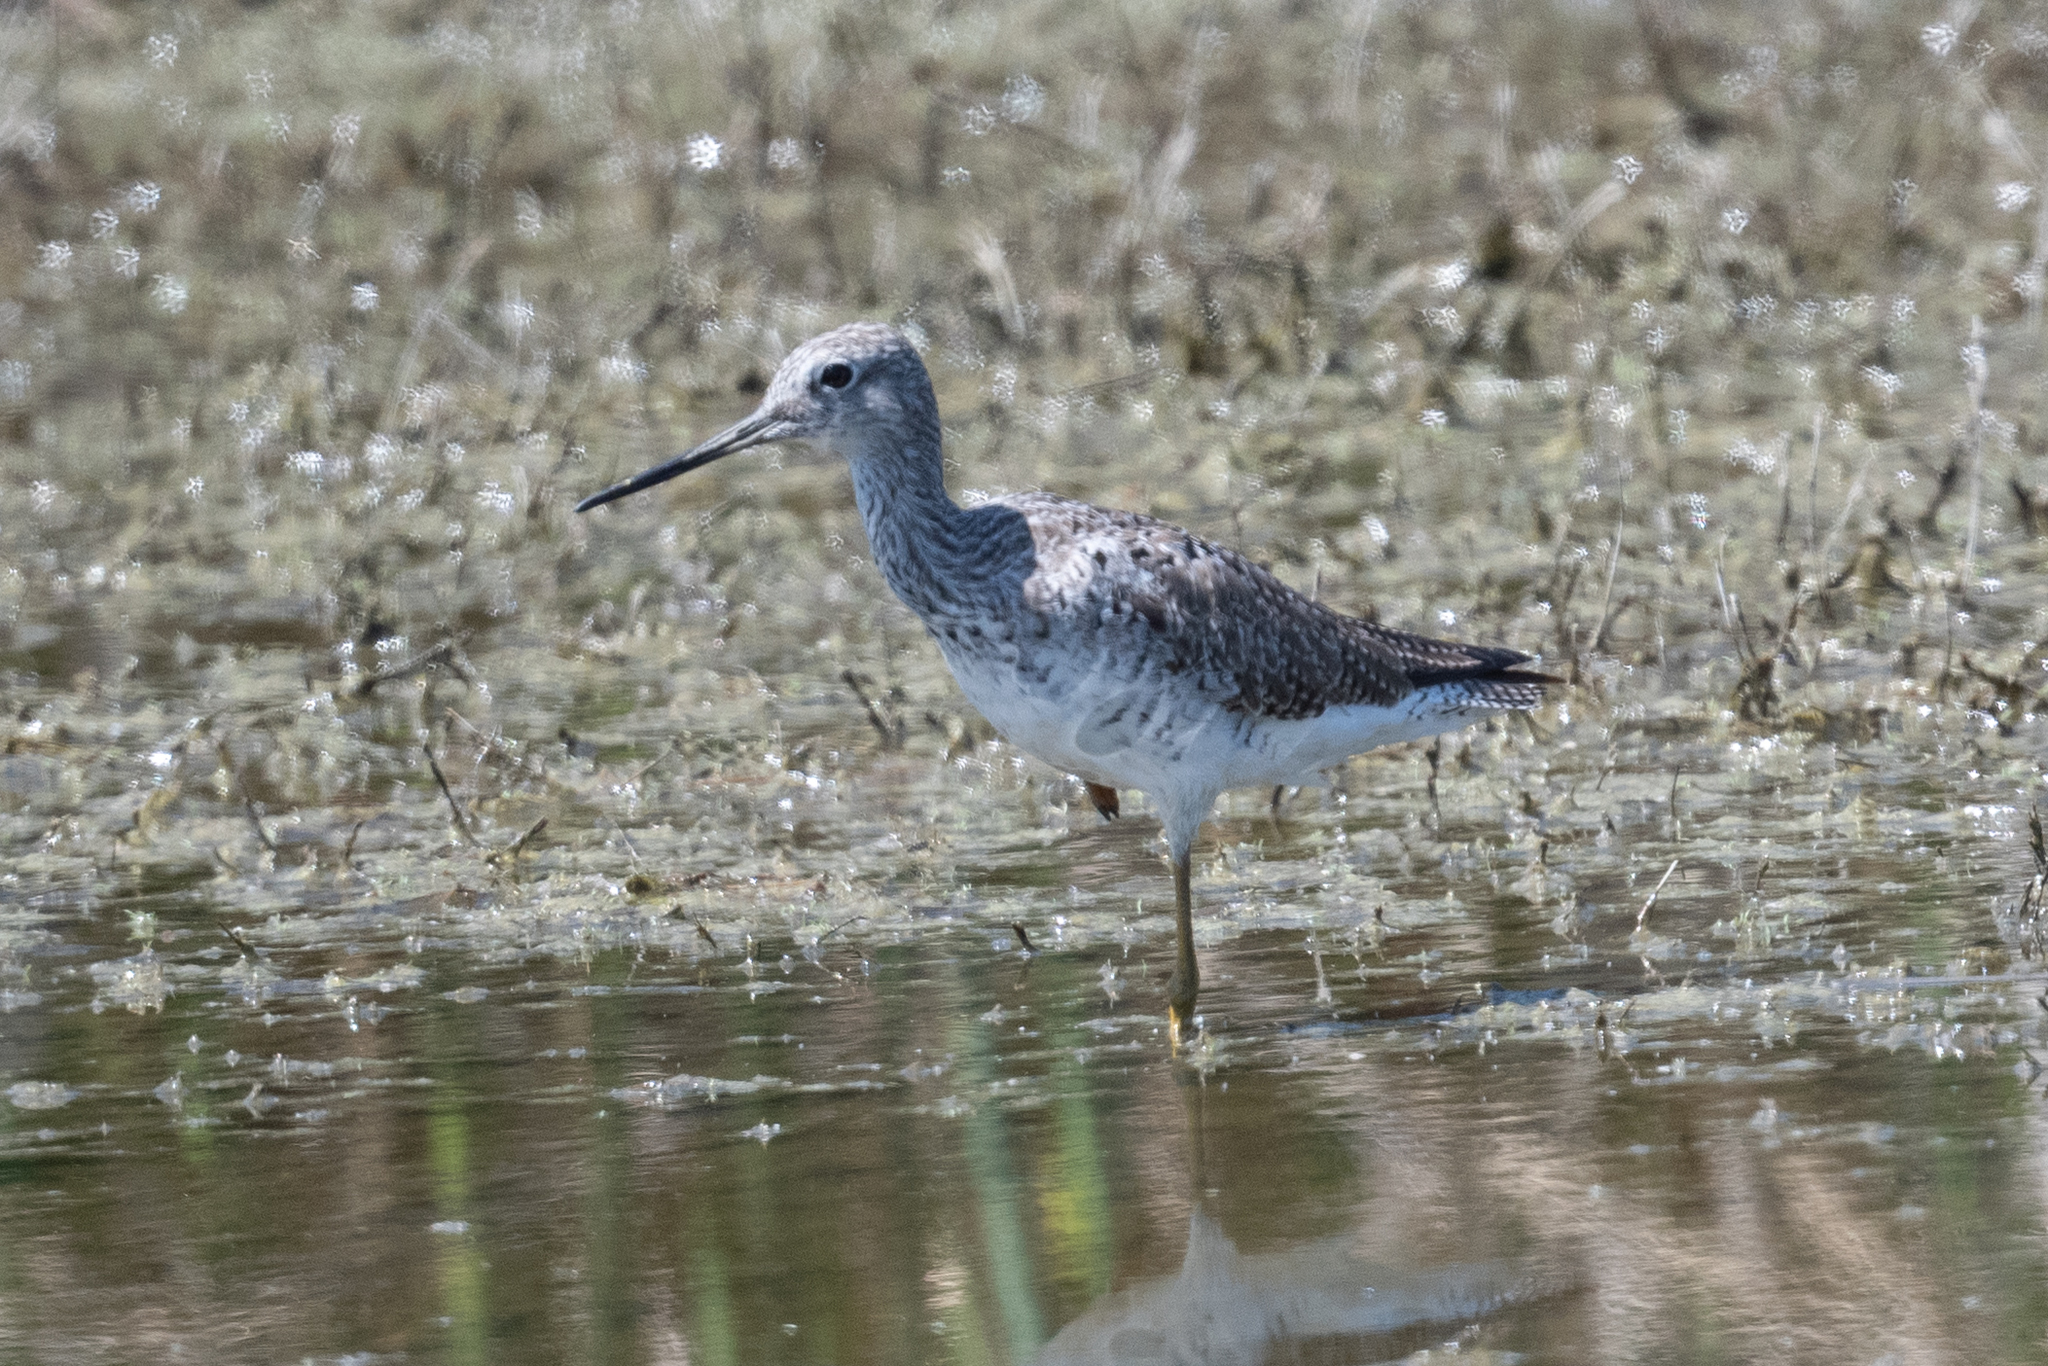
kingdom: Animalia
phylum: Chordata
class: Aves
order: Charadriiformes
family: Scolopacidae
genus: Tringa
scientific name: Tringa melanoleuca
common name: Greater yellowlegs
